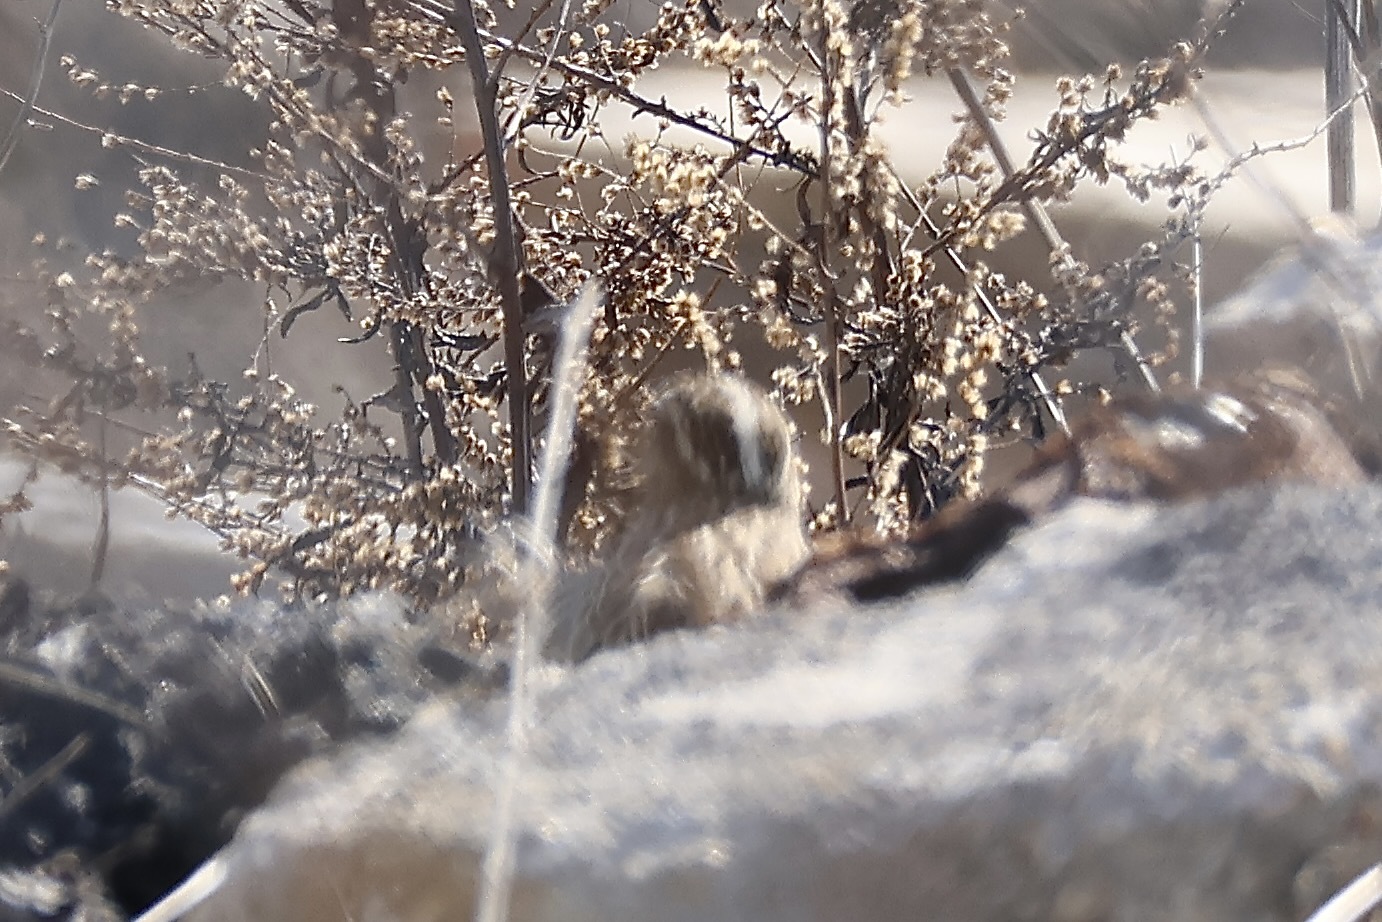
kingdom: Animalia
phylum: Chordata
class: Aves
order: Passeriformes
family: Icteridae
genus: Sturnella
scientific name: Sturnella neglecta
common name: Western meadowlark
